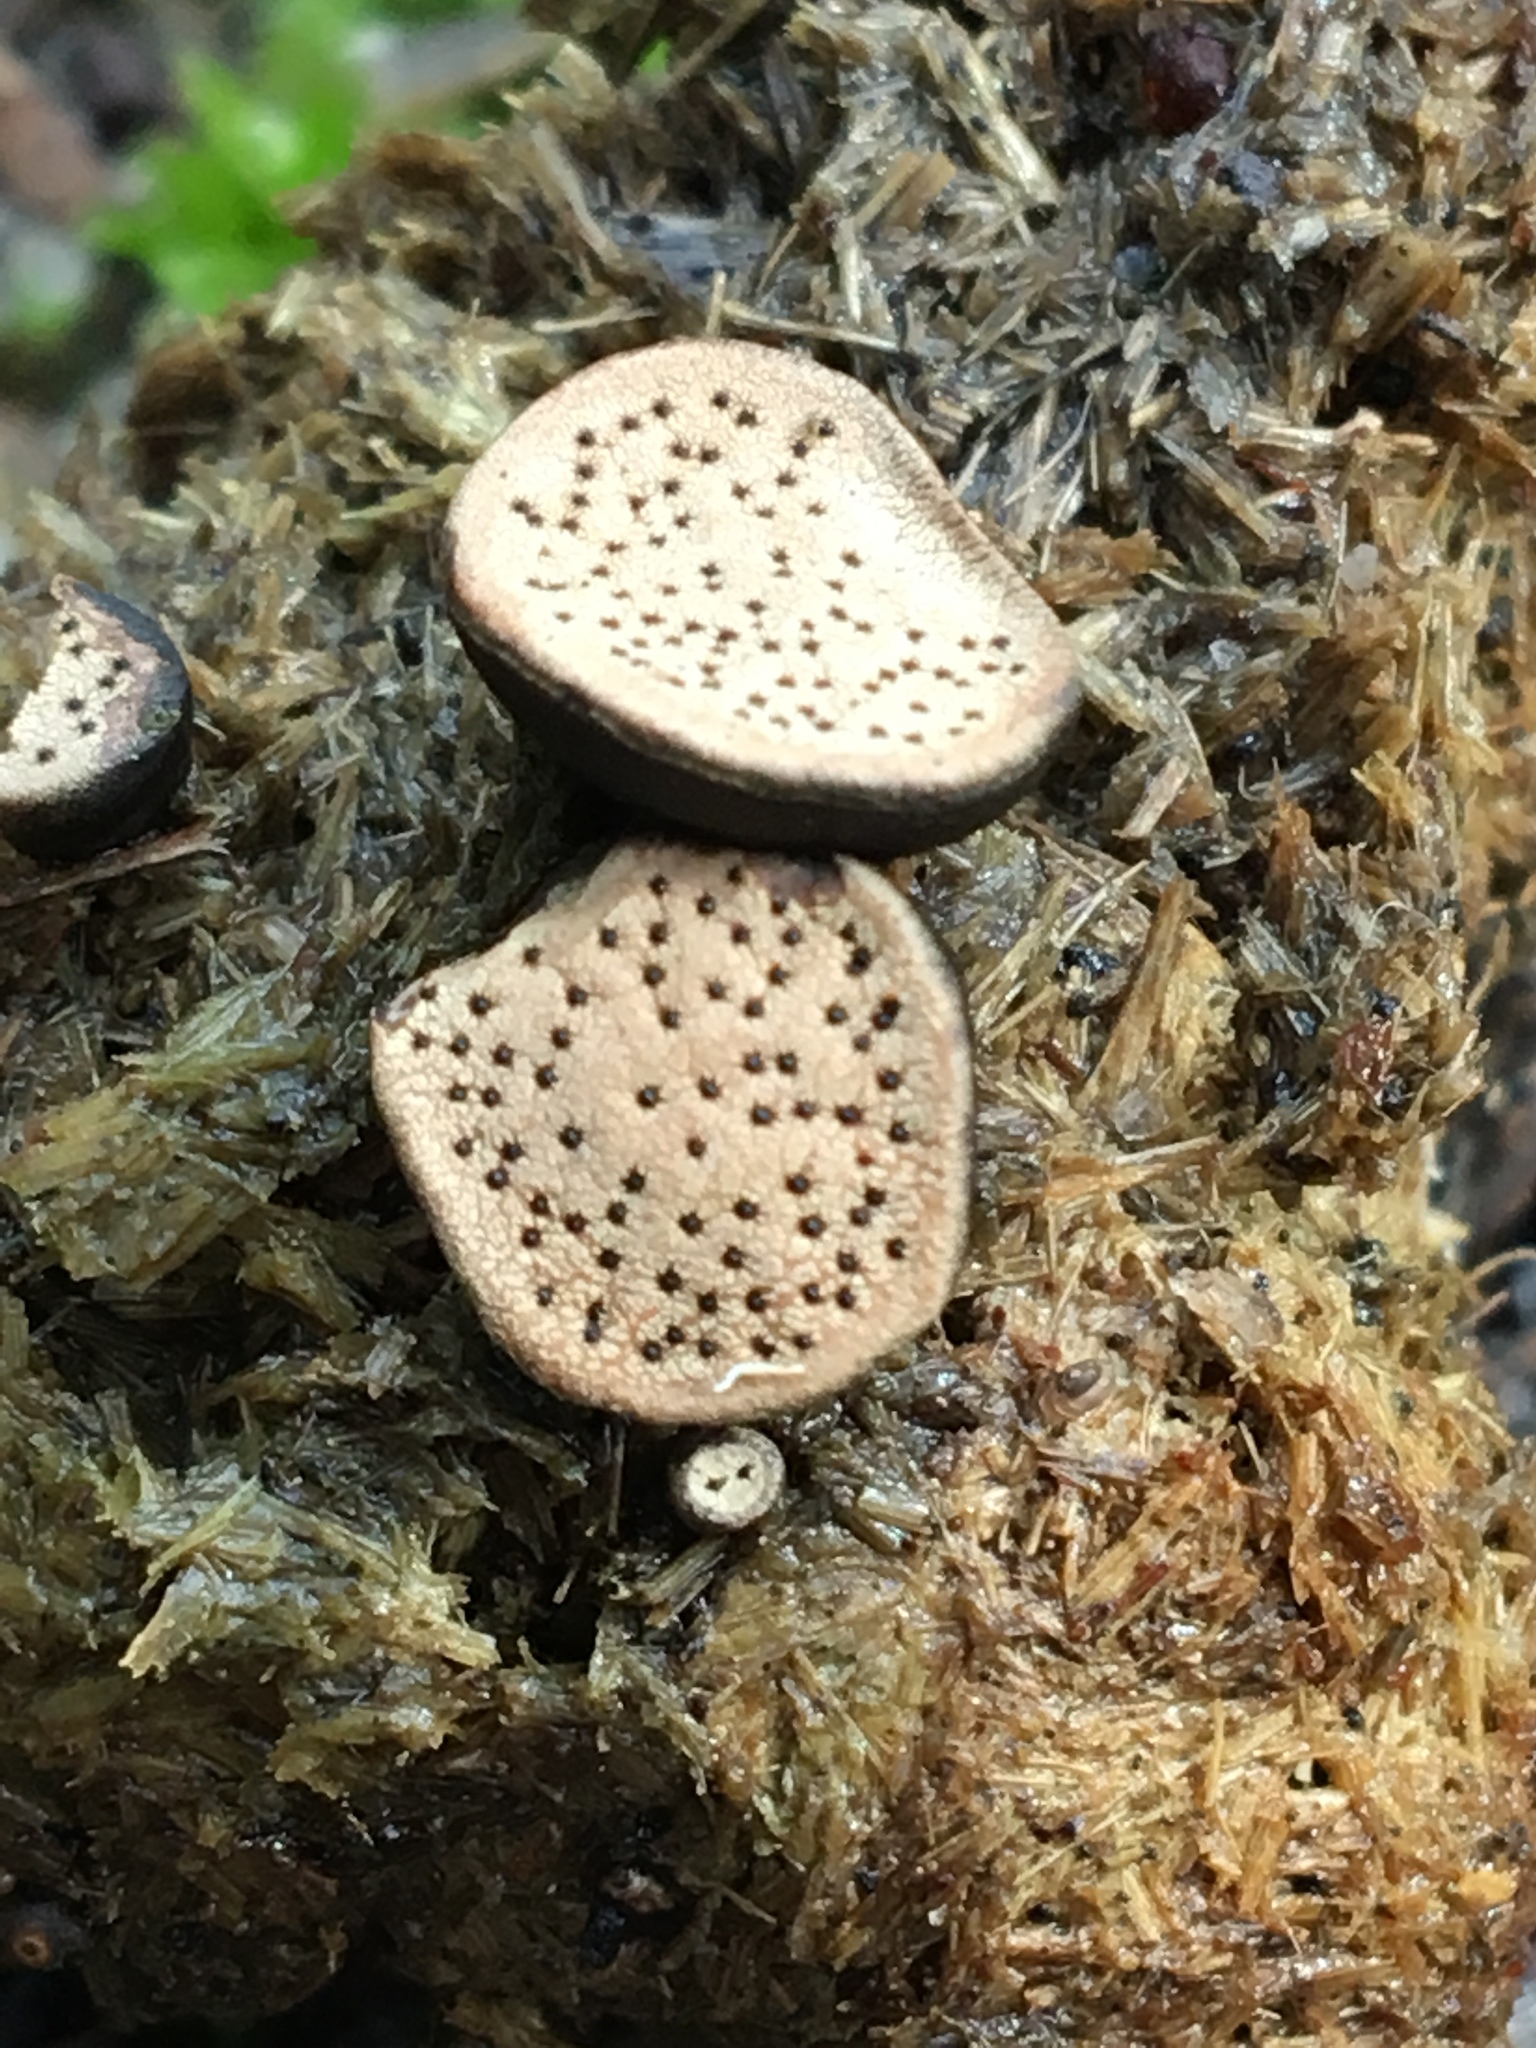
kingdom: Fungi
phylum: Ascomycota
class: Sordariomycetes
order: Xylariales
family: Xylariaceae
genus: Poronia
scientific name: Poronia erici
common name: Dung button
